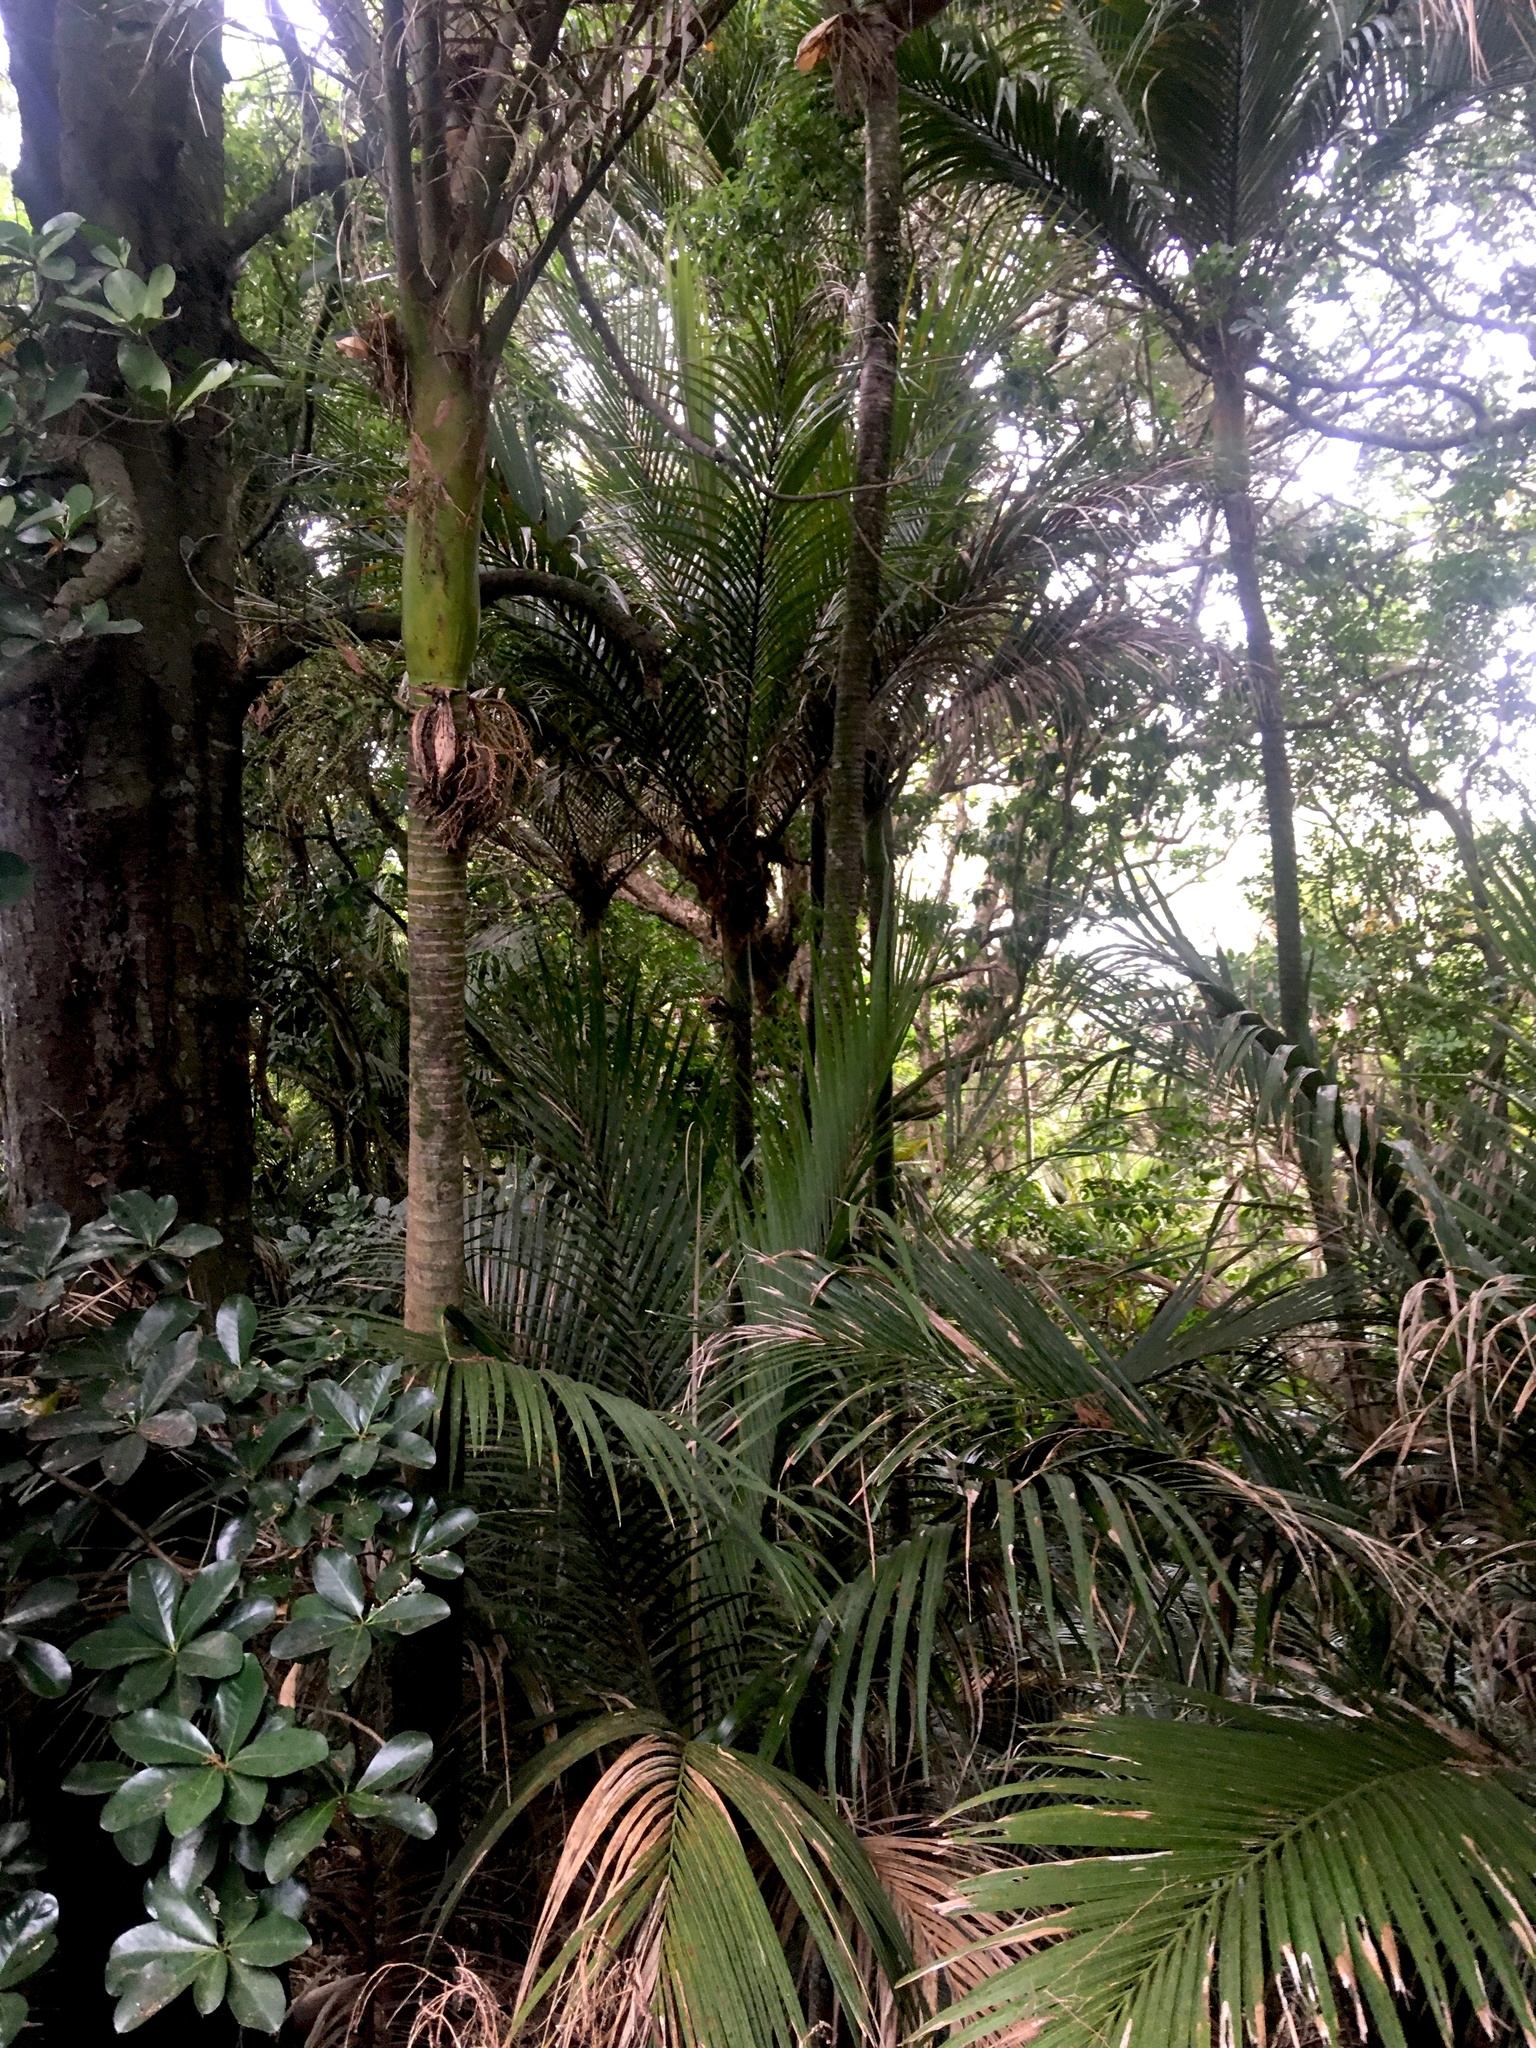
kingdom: Plantae
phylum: Tracheophyta
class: Magnoliopsida
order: Cucurbitales
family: Corynocarpaceae
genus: Corynocarpus
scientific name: Corynocarpus laevigatus
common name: New zealand laurel
